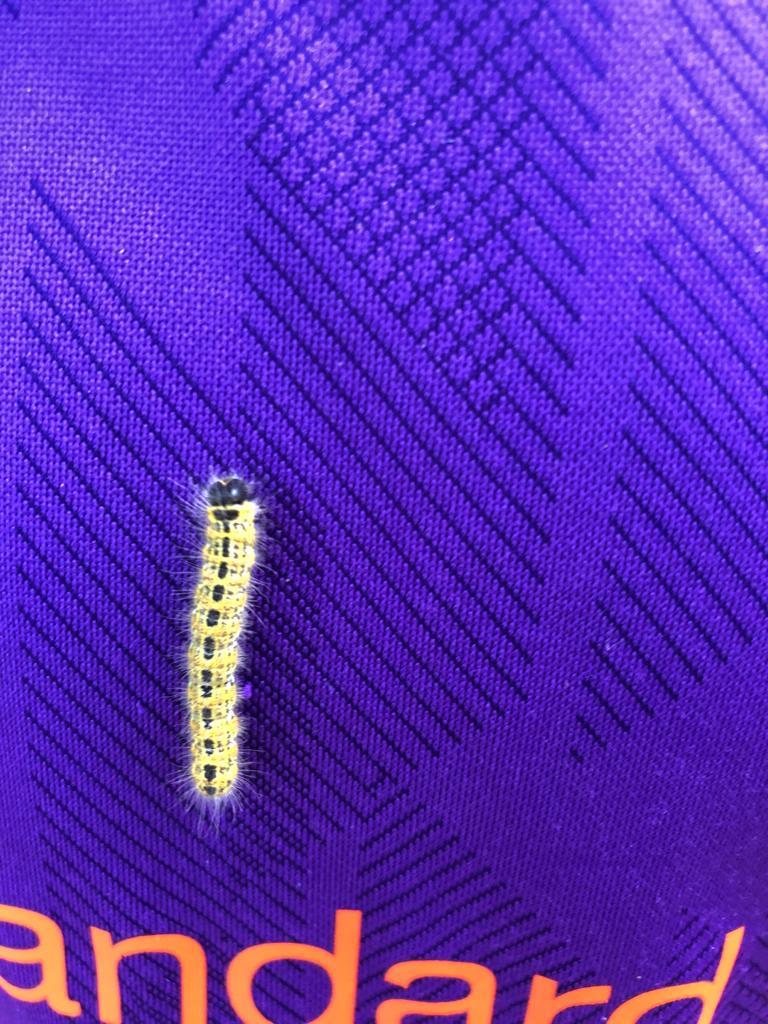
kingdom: Animalia
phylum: Arthropoda
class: Insecta
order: Lepidoptera
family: Notodontidae
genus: Phalera
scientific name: Phalera bucephala
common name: Buff-tip
